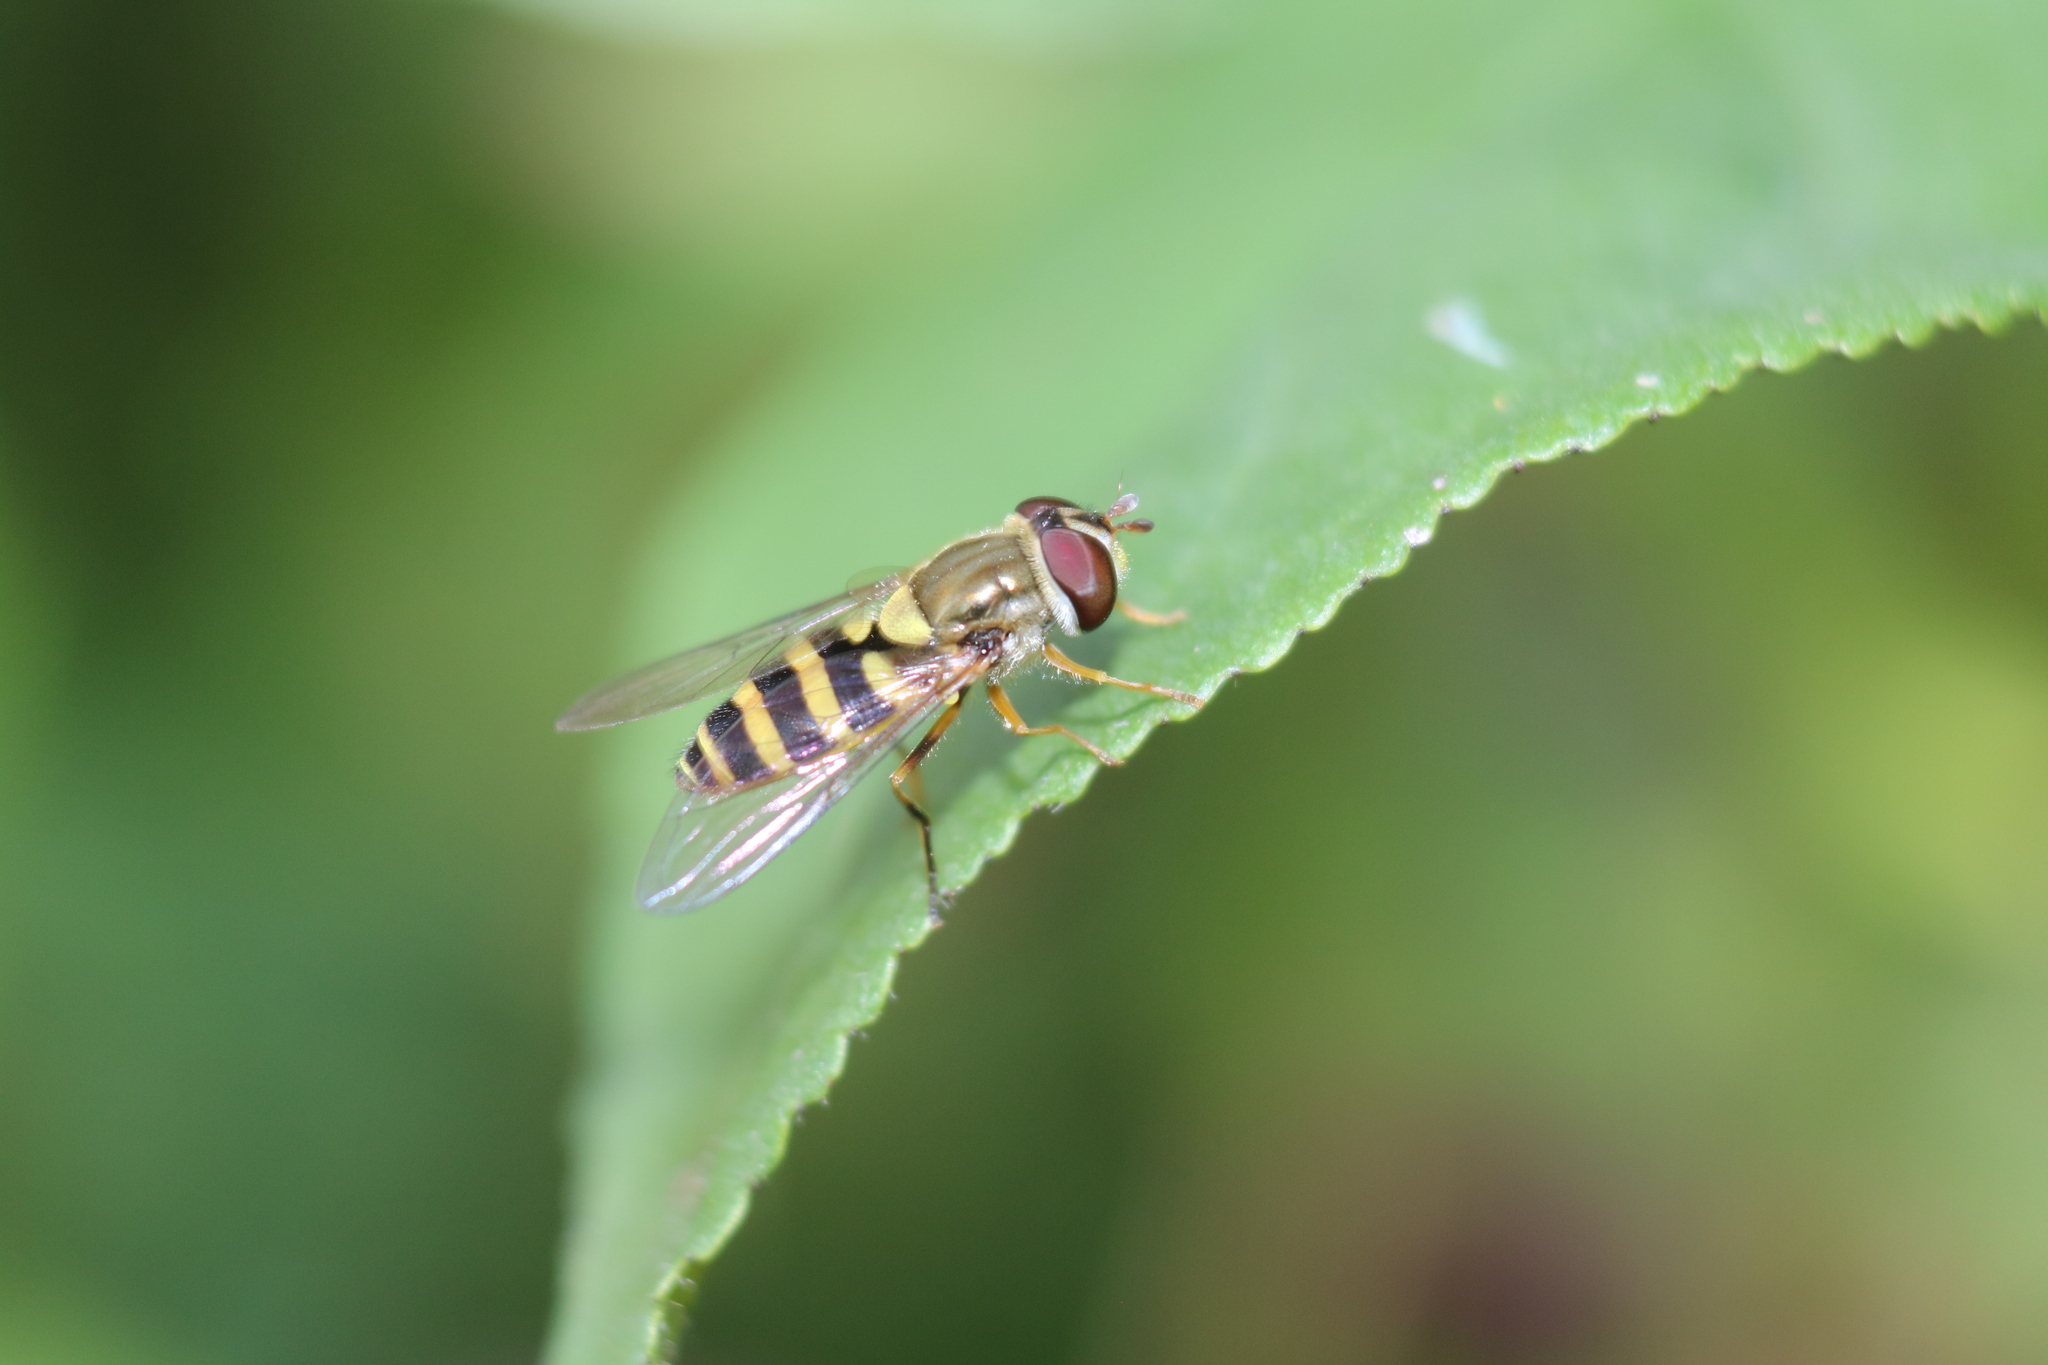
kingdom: Animalia
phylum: Arthropoda
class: Insecta
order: Diptera
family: Syrphidae
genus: Syrphus
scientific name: Syrphus rectus
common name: Yellow-legged flower fly
